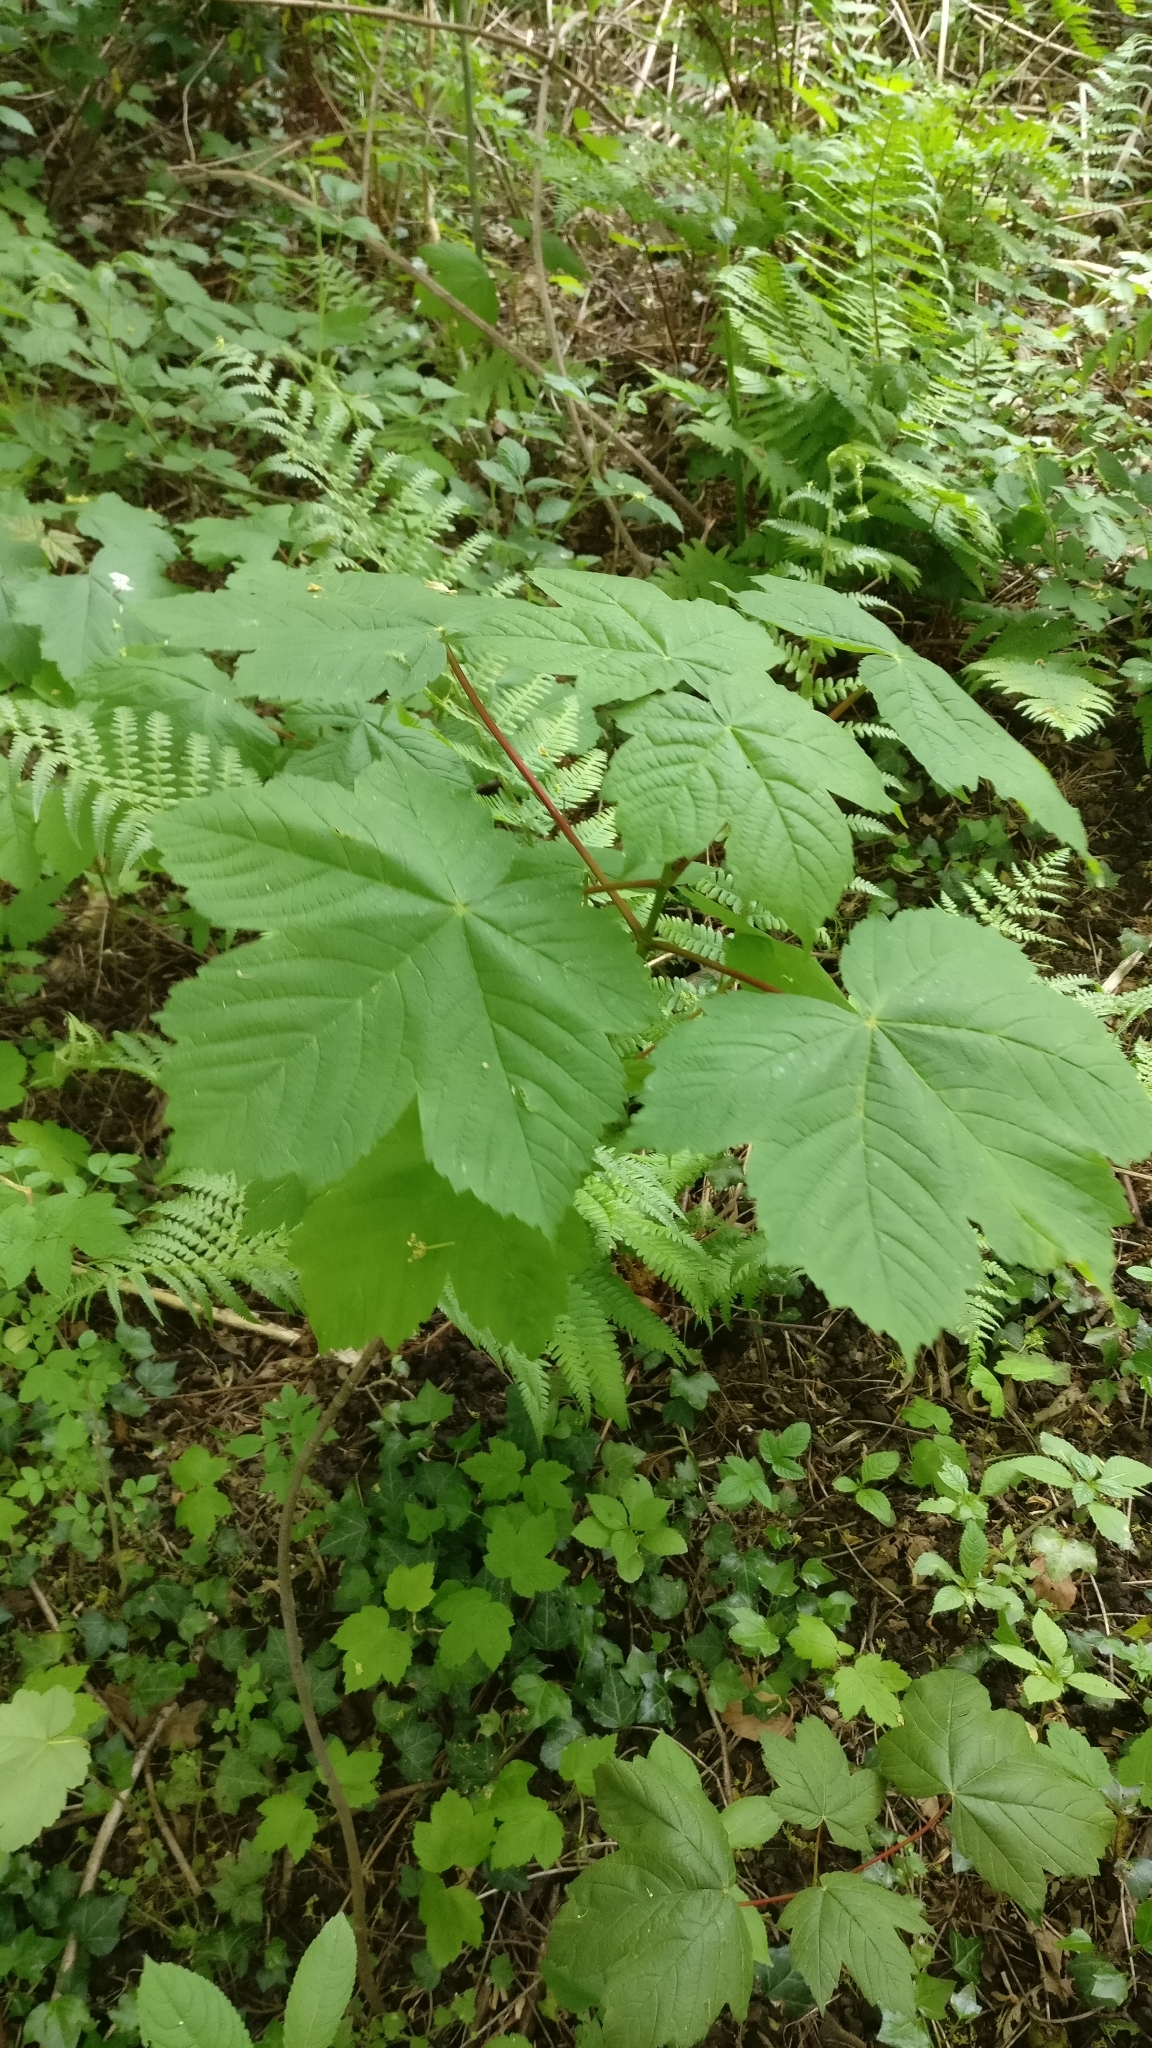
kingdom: Plantae
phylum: Tracheophyta
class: Magnoliopsida
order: Sapindales
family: Sapindaceae
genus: Acer
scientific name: Acer pseudoplatanus
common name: Sycamore
